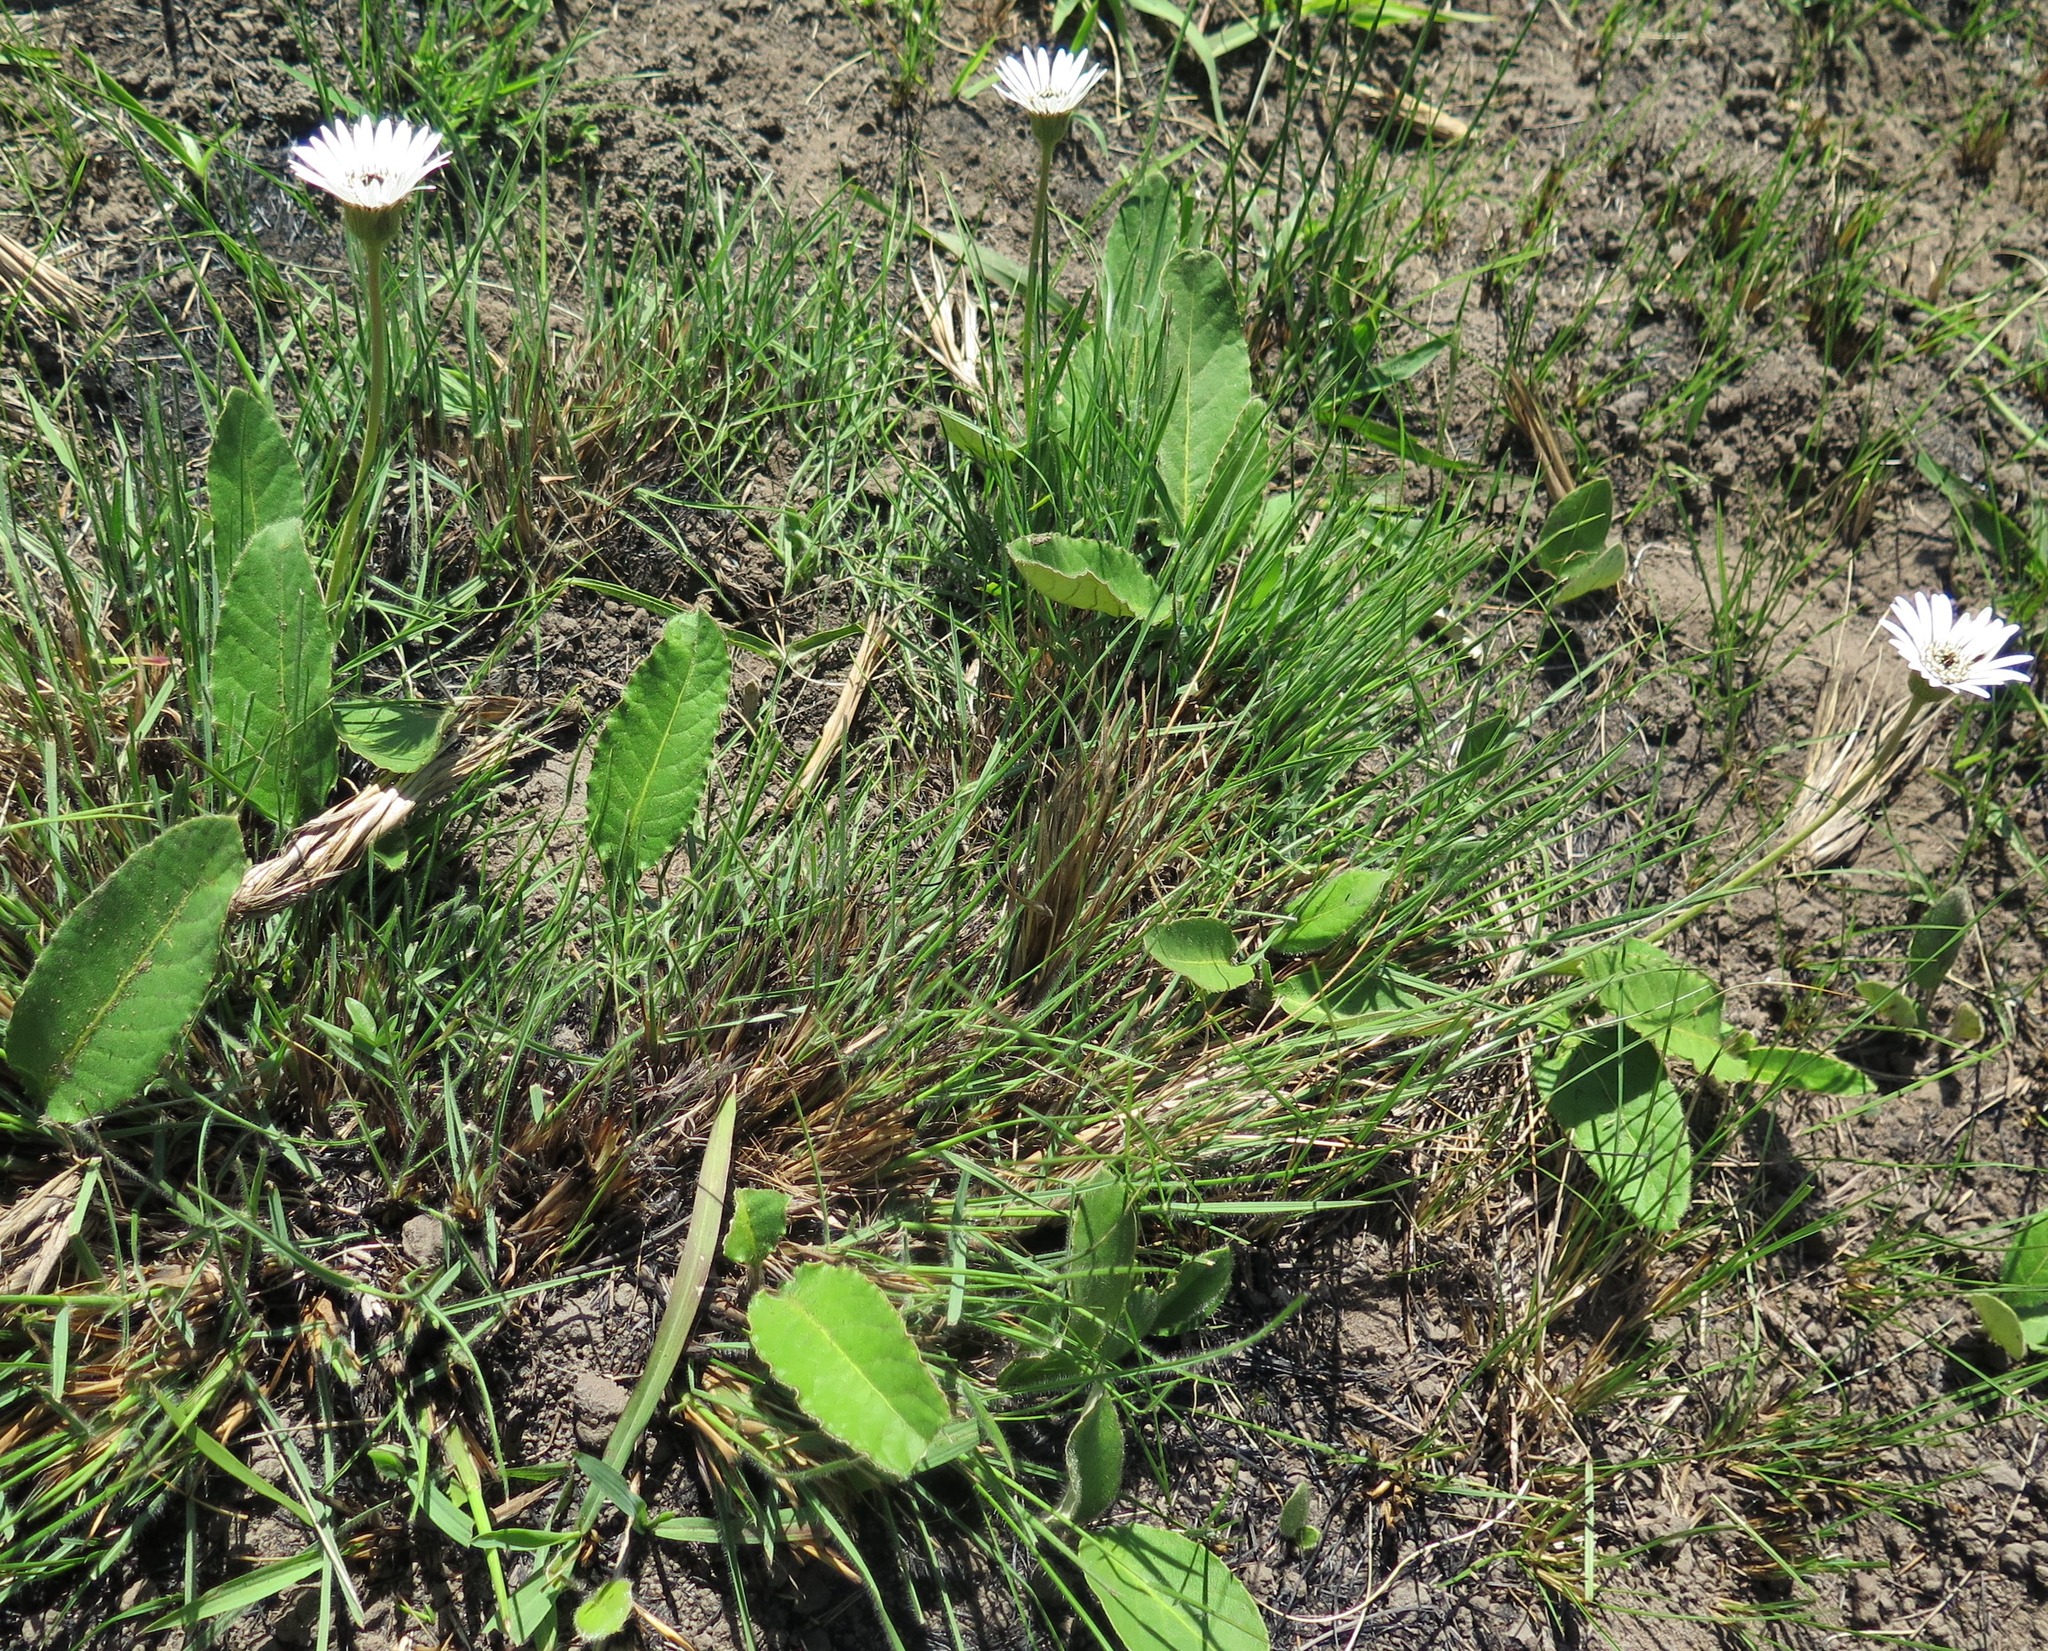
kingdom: Plantae
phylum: Tracheophyta
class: Magnoliopsida
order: Asterales
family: Asteraceae
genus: Gerbera
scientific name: Gerbera ambigua
